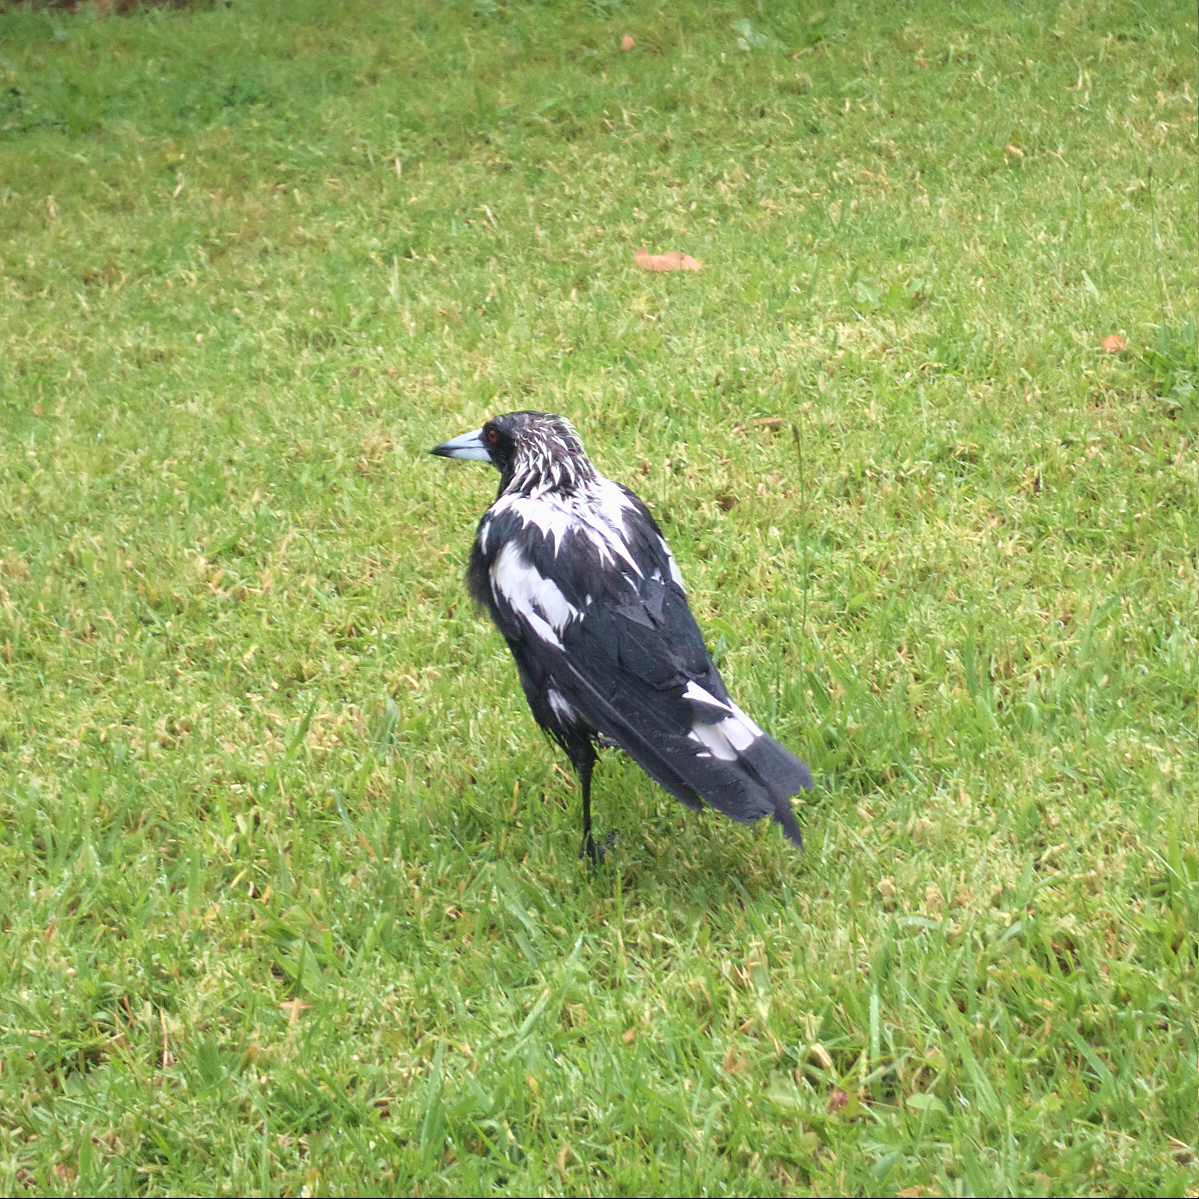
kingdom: Animalia
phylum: Chordata
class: Aves
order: Passeriformes
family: Cracticidae
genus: Gymnorhina
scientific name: Gymnorhina tibicen
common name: Australian magpie
